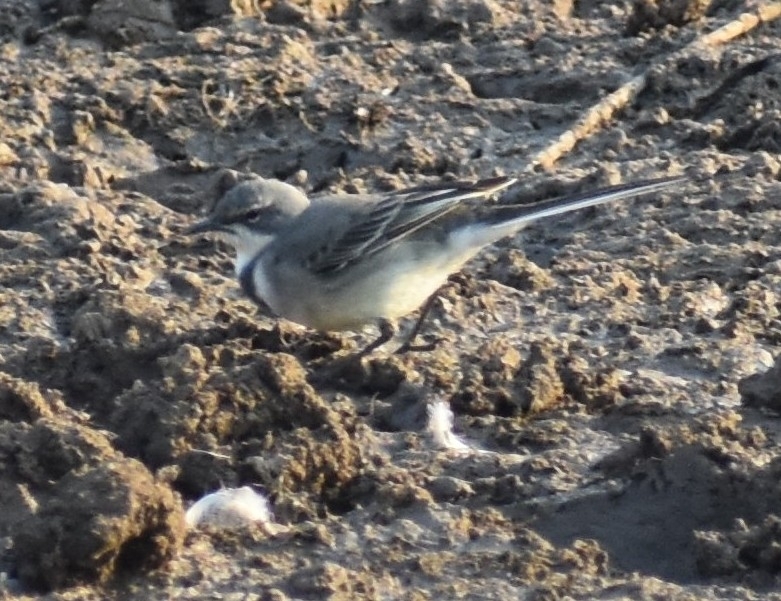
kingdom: Animalia
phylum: Chordata
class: Aves
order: Passeriformes
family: Motacillidae
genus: Motacilla
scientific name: Motacilla capensis
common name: Cape wagtail
